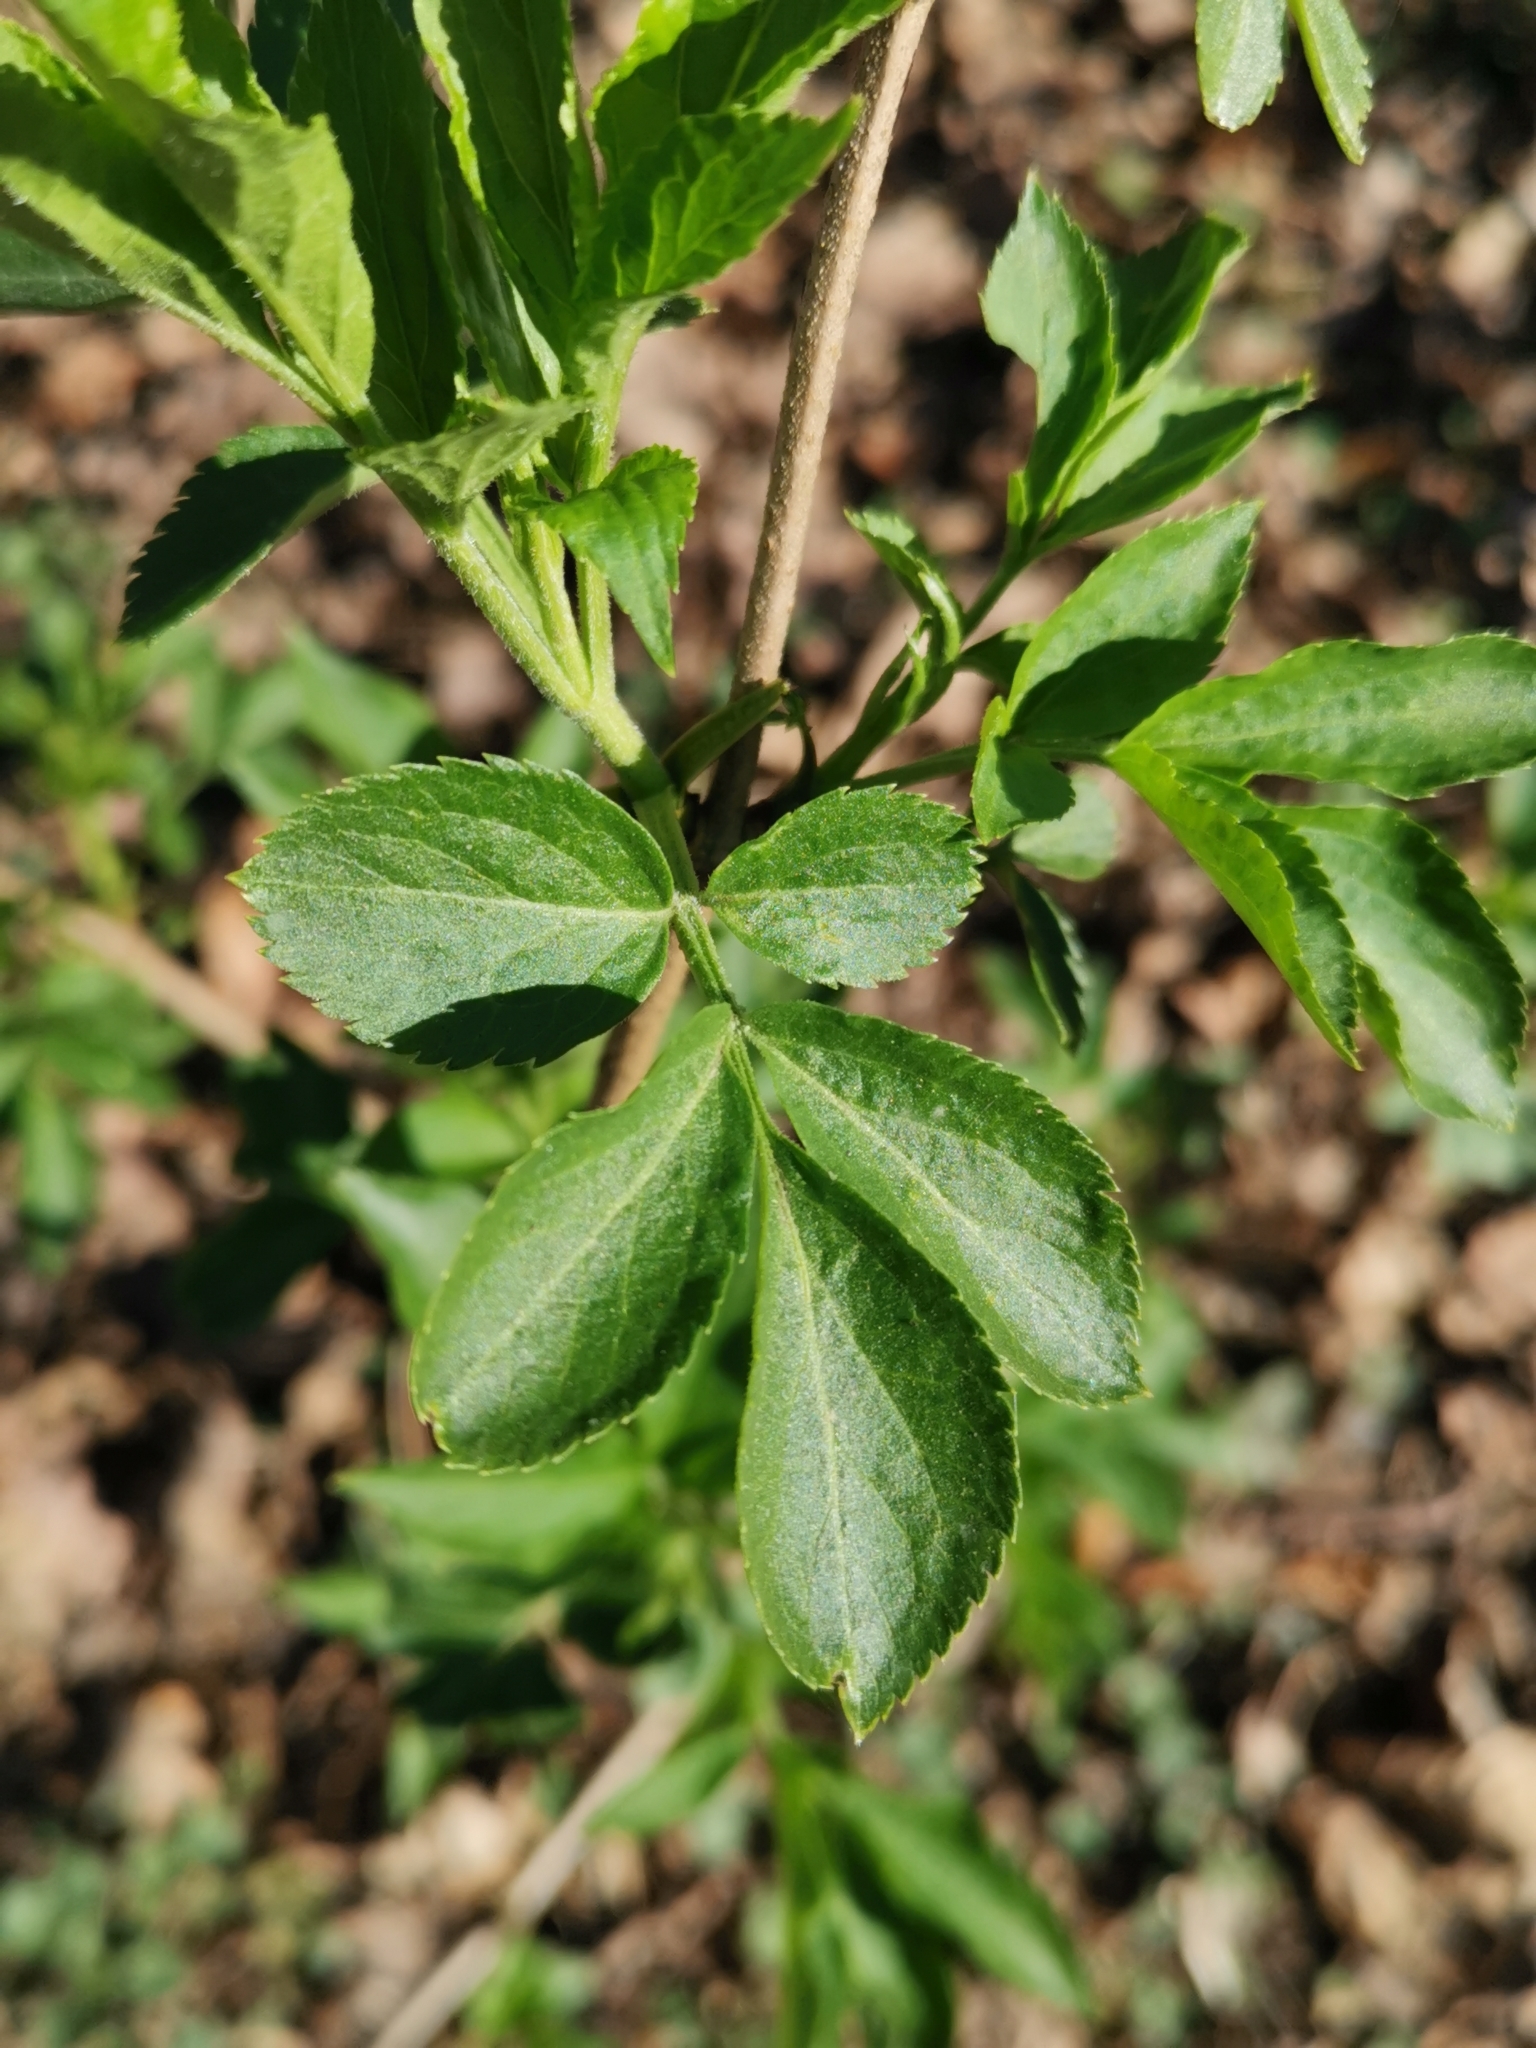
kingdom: Plantae
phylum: Tracheophyta
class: Magnoliopsida
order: Dipsacales
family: Viburnaceae
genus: Sambucus
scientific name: Sambucus nigra
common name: Elder
